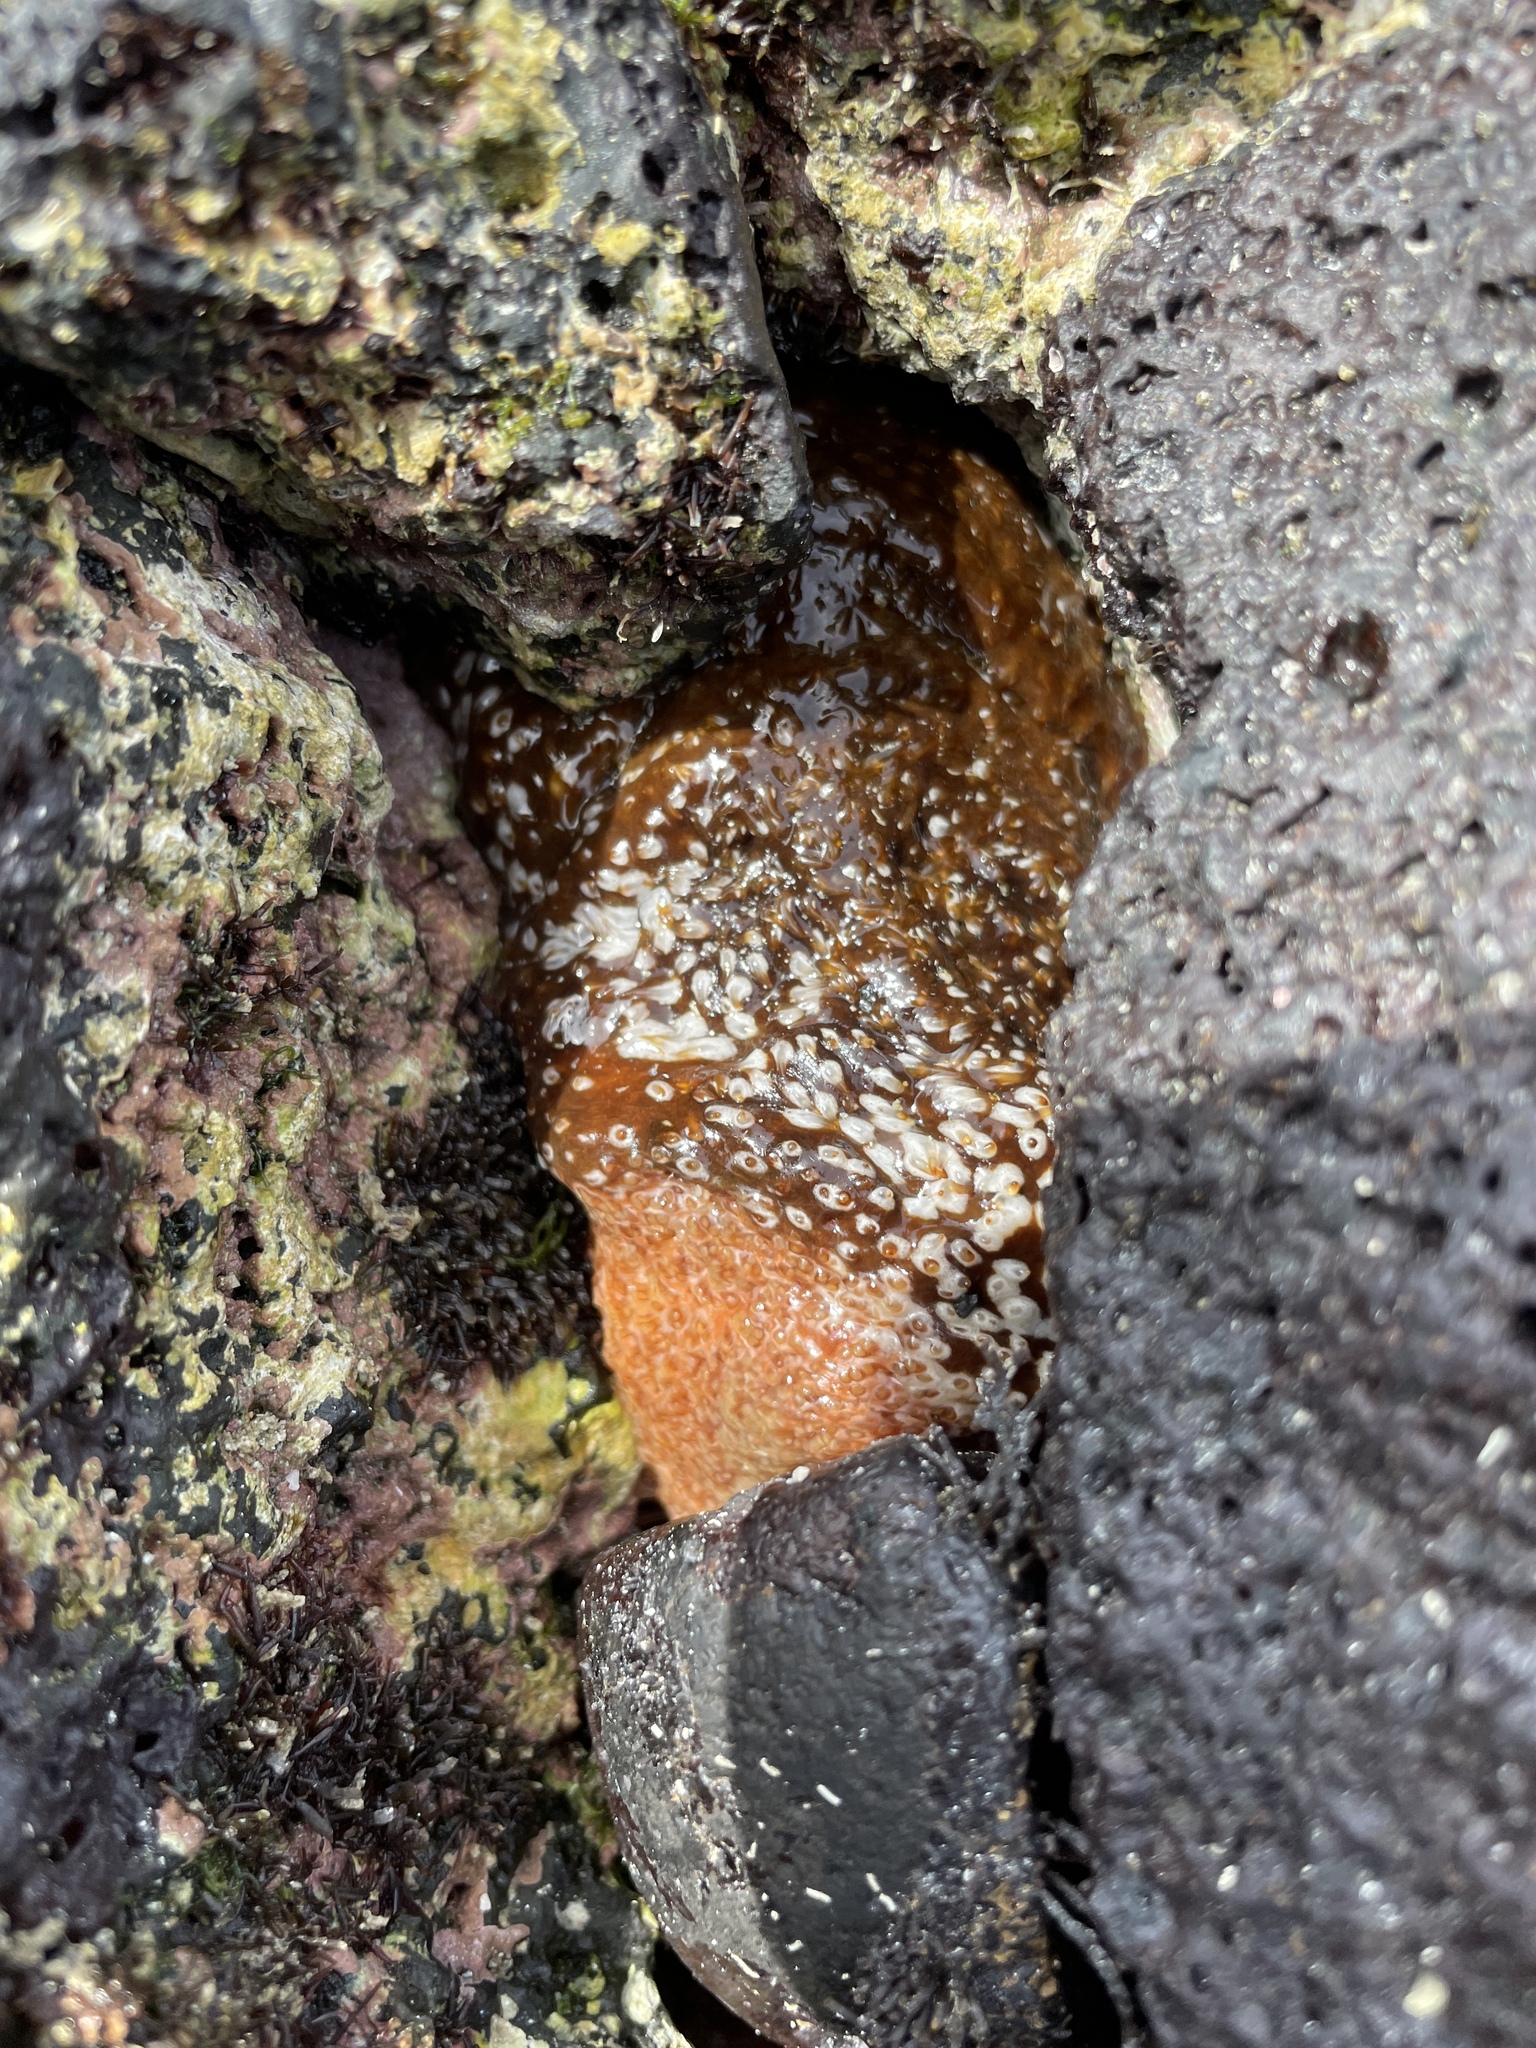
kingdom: Animalia
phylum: Echinodermata
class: Holothuroidea
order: Holothuriida
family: Holothuriidae
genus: Actinopyga
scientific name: Actinopyga varians
